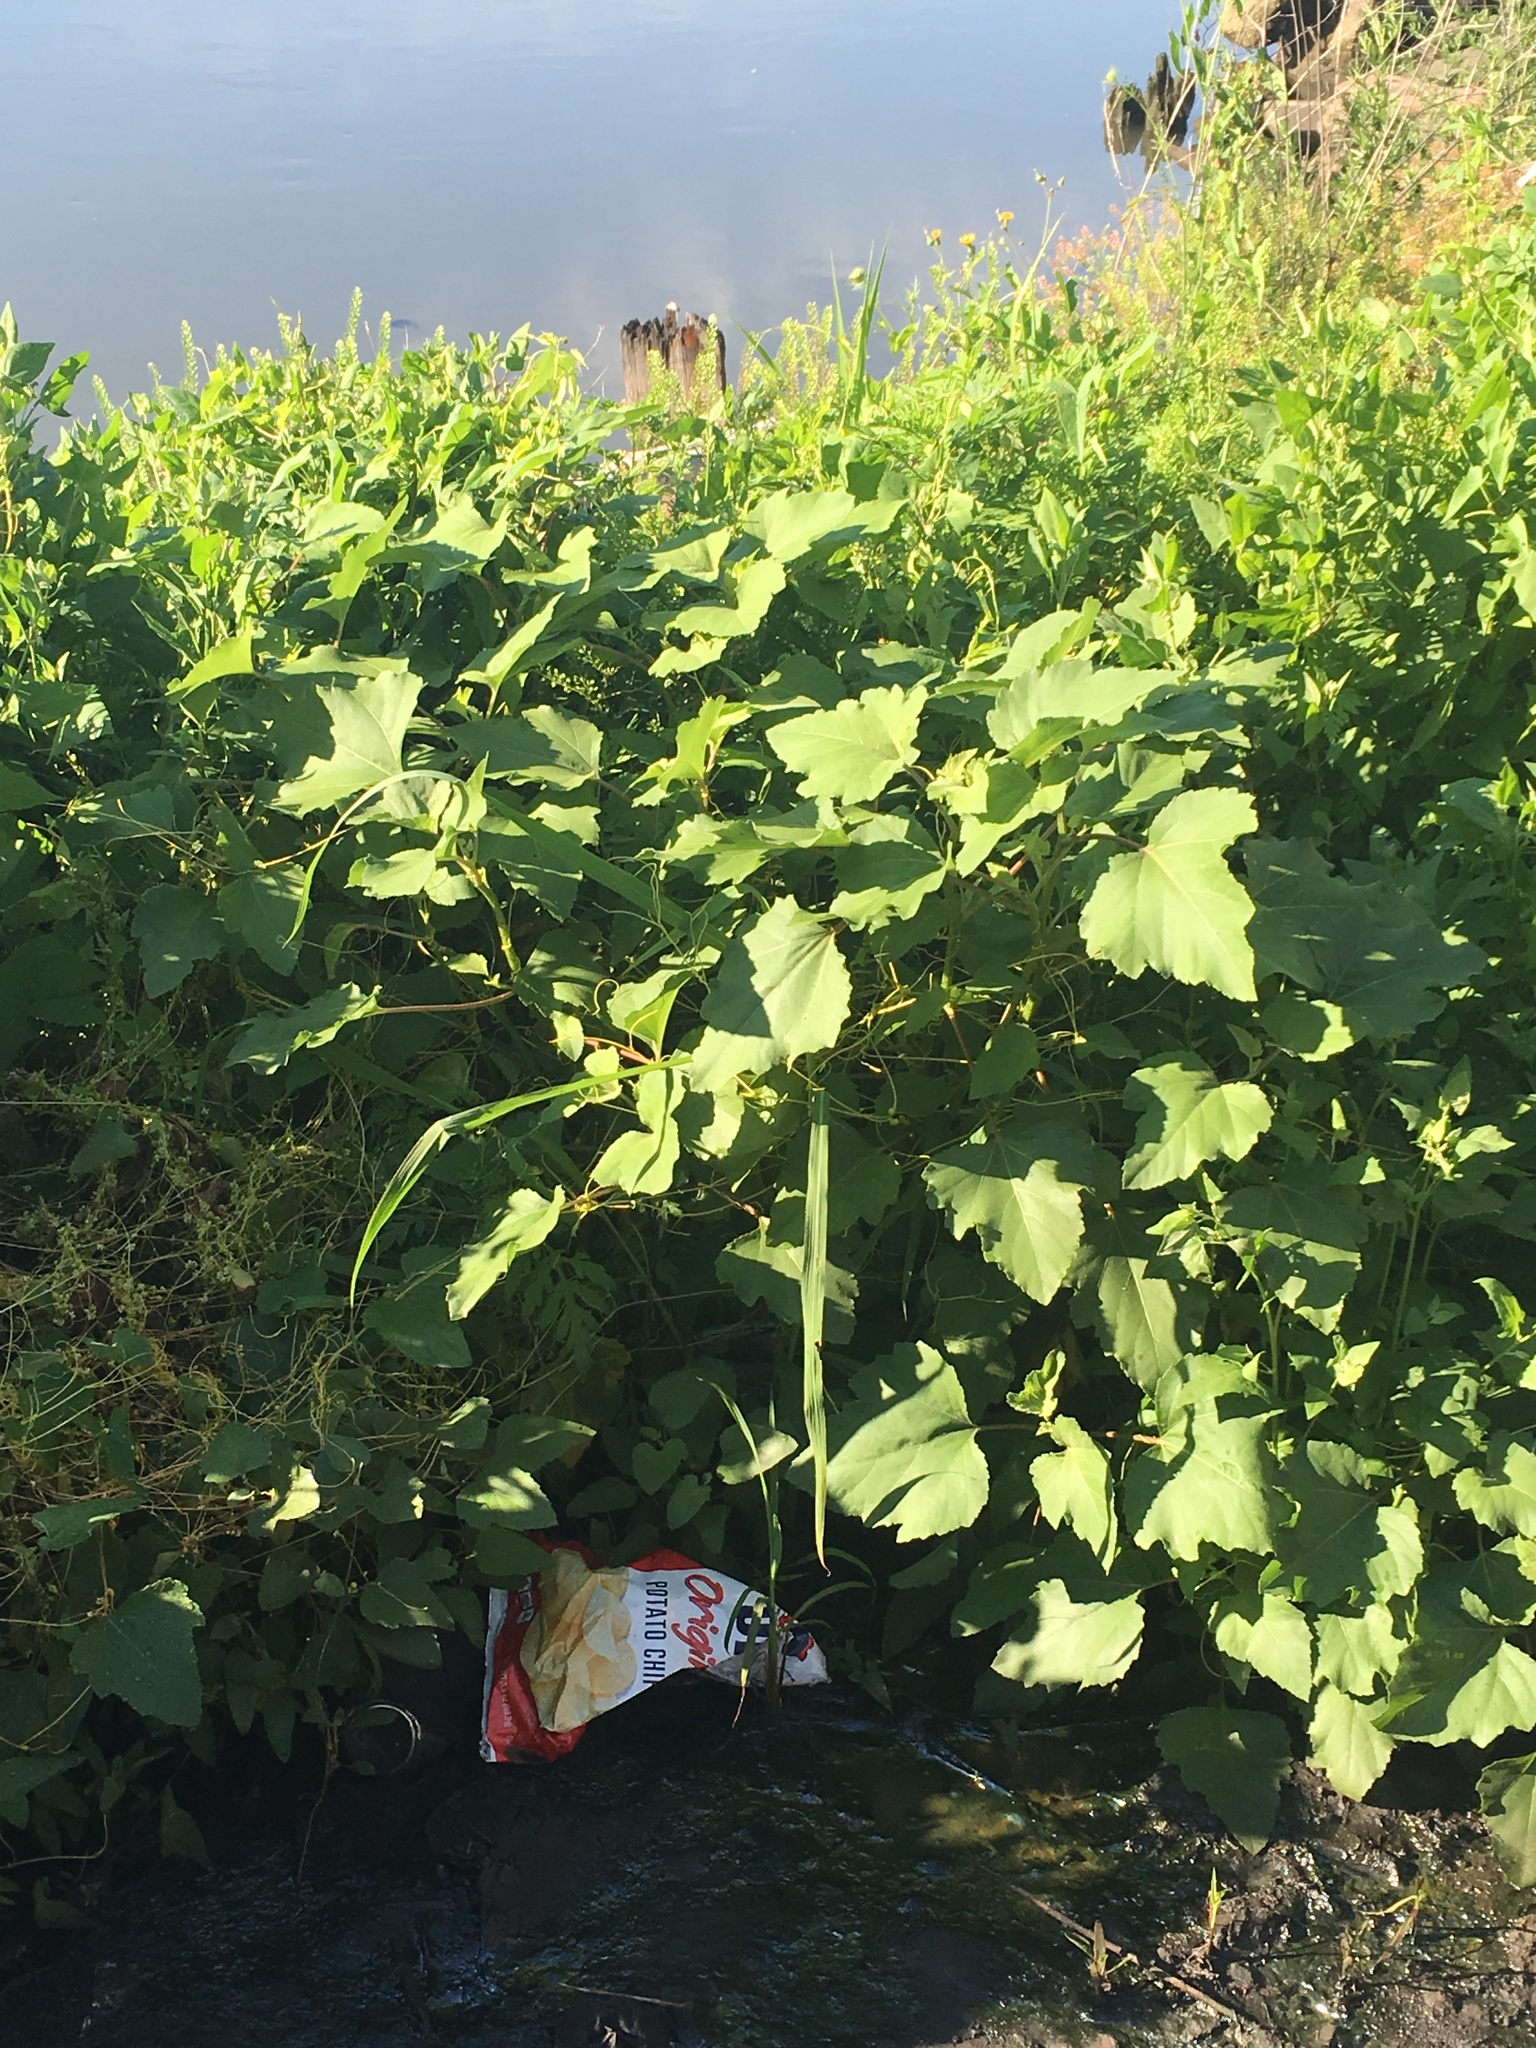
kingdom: Plantae
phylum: Tracheophyta
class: Magnoliopsida
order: Asterales
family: Asteraceae
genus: Xanthium
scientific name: Xanthium strumarium
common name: Rough cocklebur
